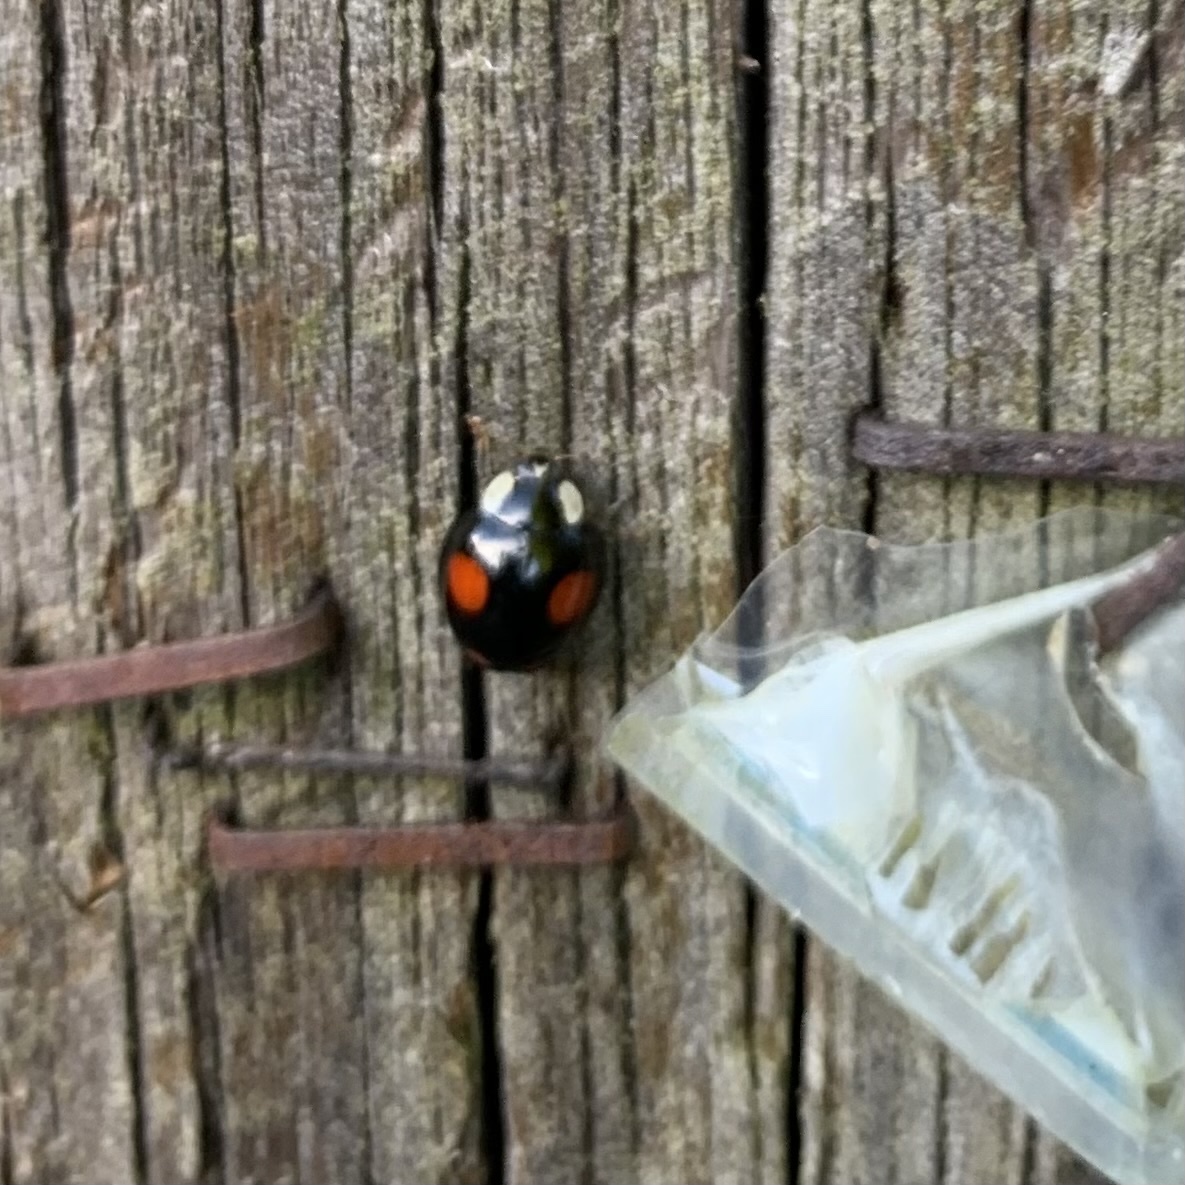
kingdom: Animalia
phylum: Arthropoda
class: Insecta
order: Coleoptera
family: Coccinellidae
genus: Harmonia
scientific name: Harmonia axyridis
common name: Harlequin ladybird
